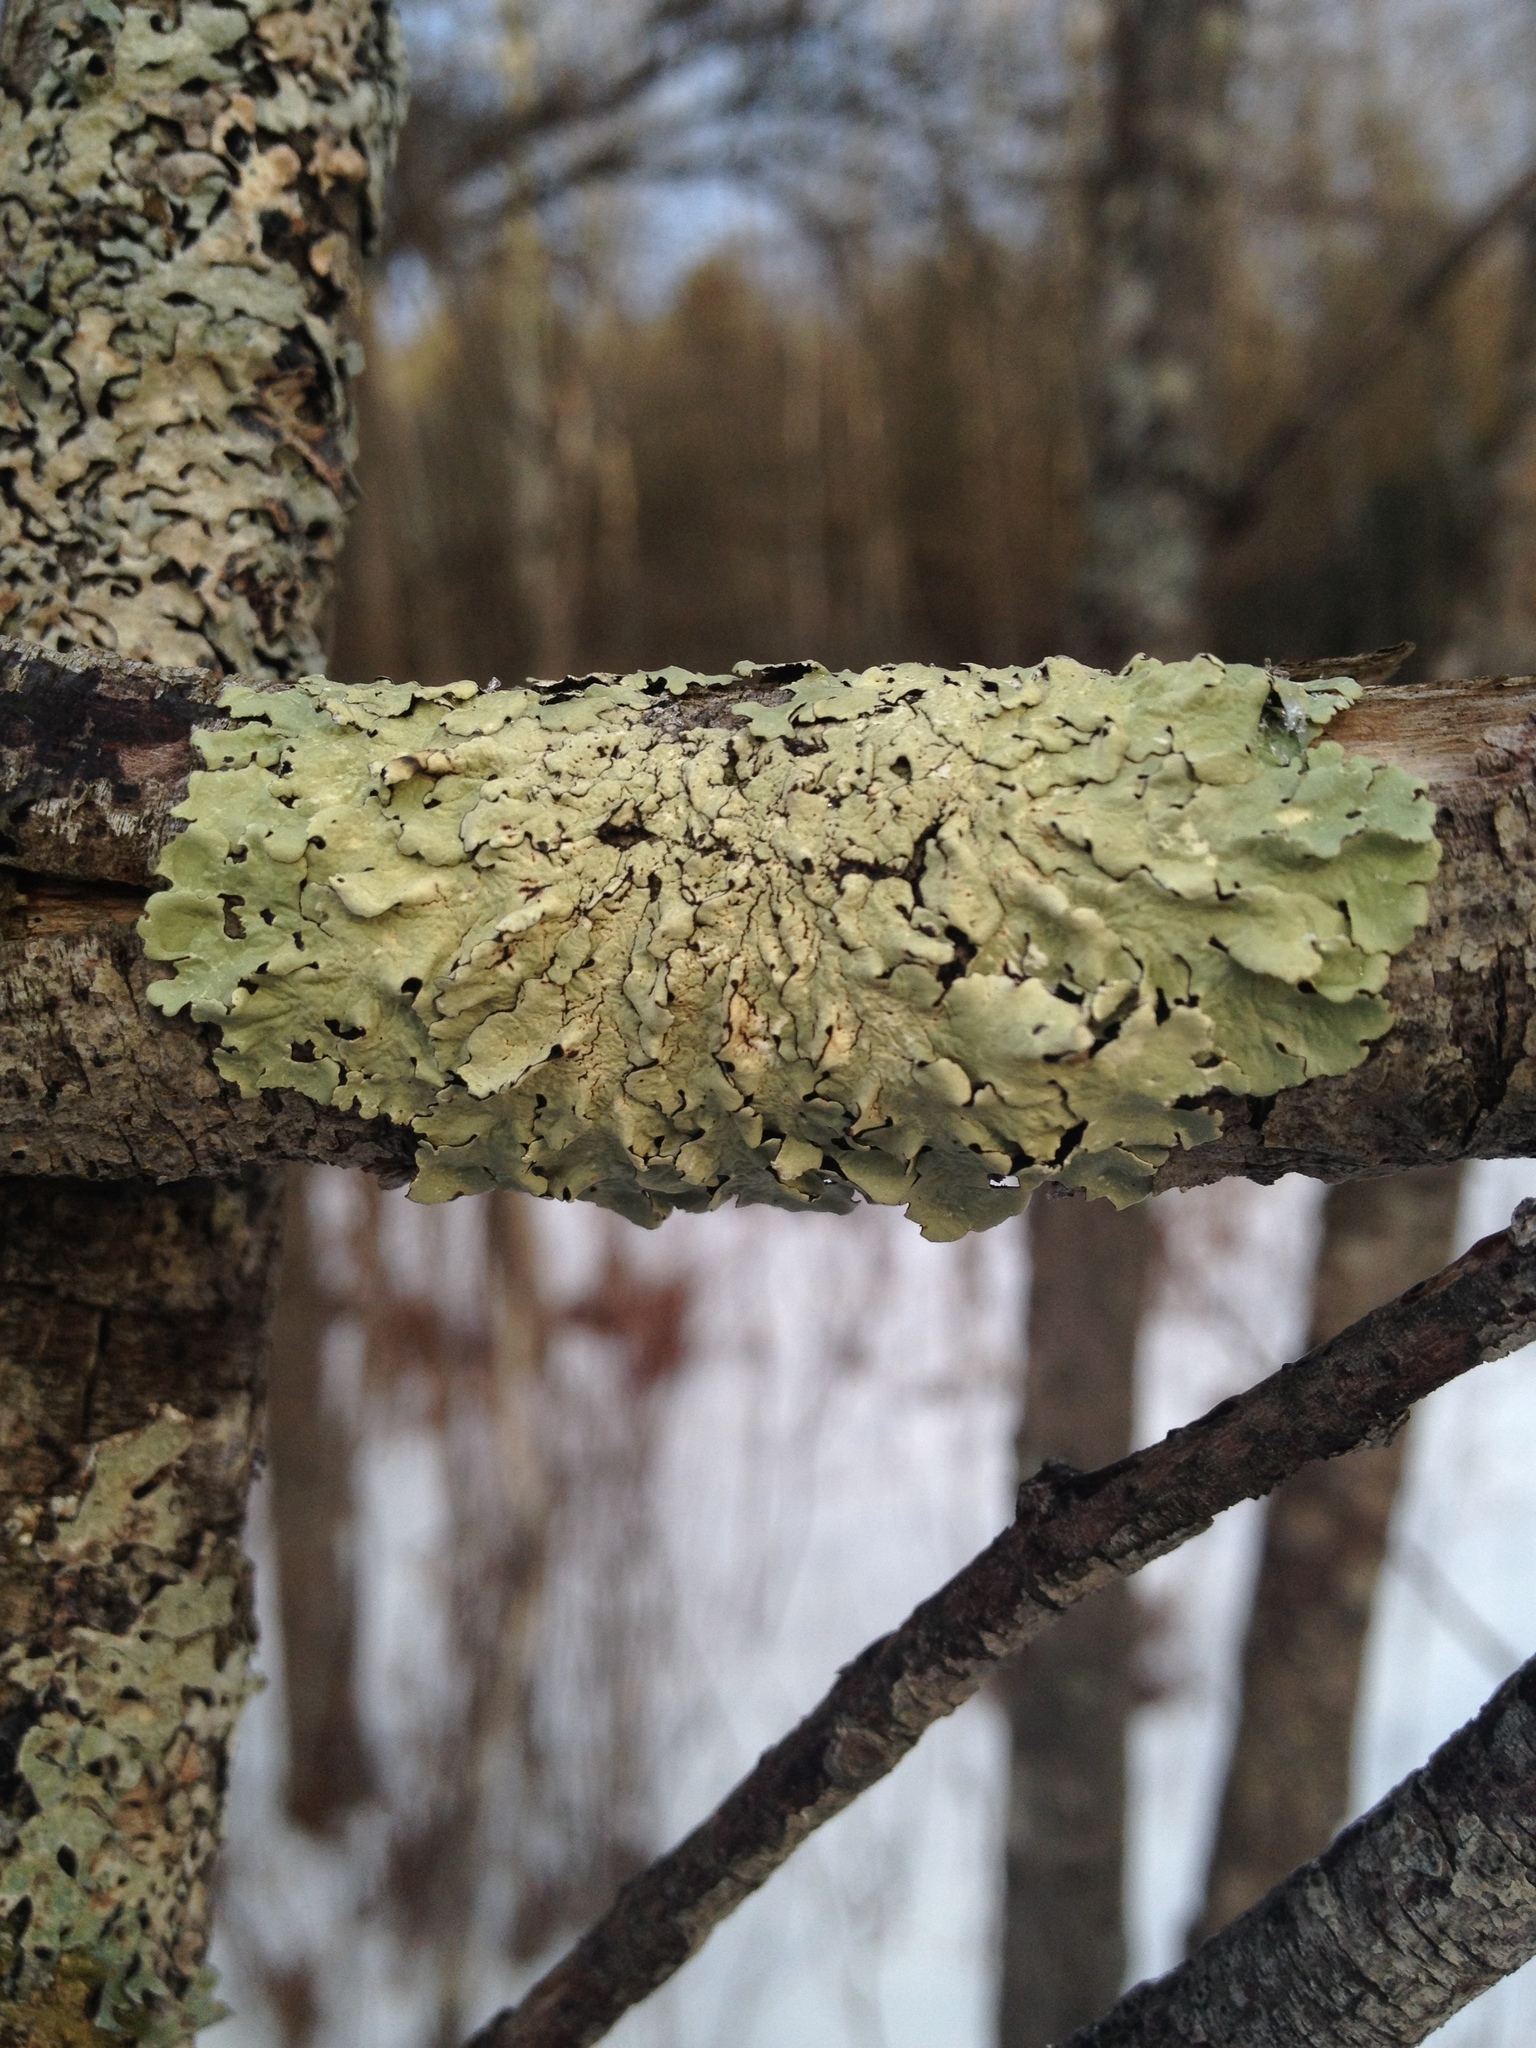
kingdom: Fungi
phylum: Ascomycota
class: Lecanoromycetes
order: Lecanorales
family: Parmeliaceae
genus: Flavoparmelia
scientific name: Flavoparmelia caperata
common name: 40-mile per hour lichen
